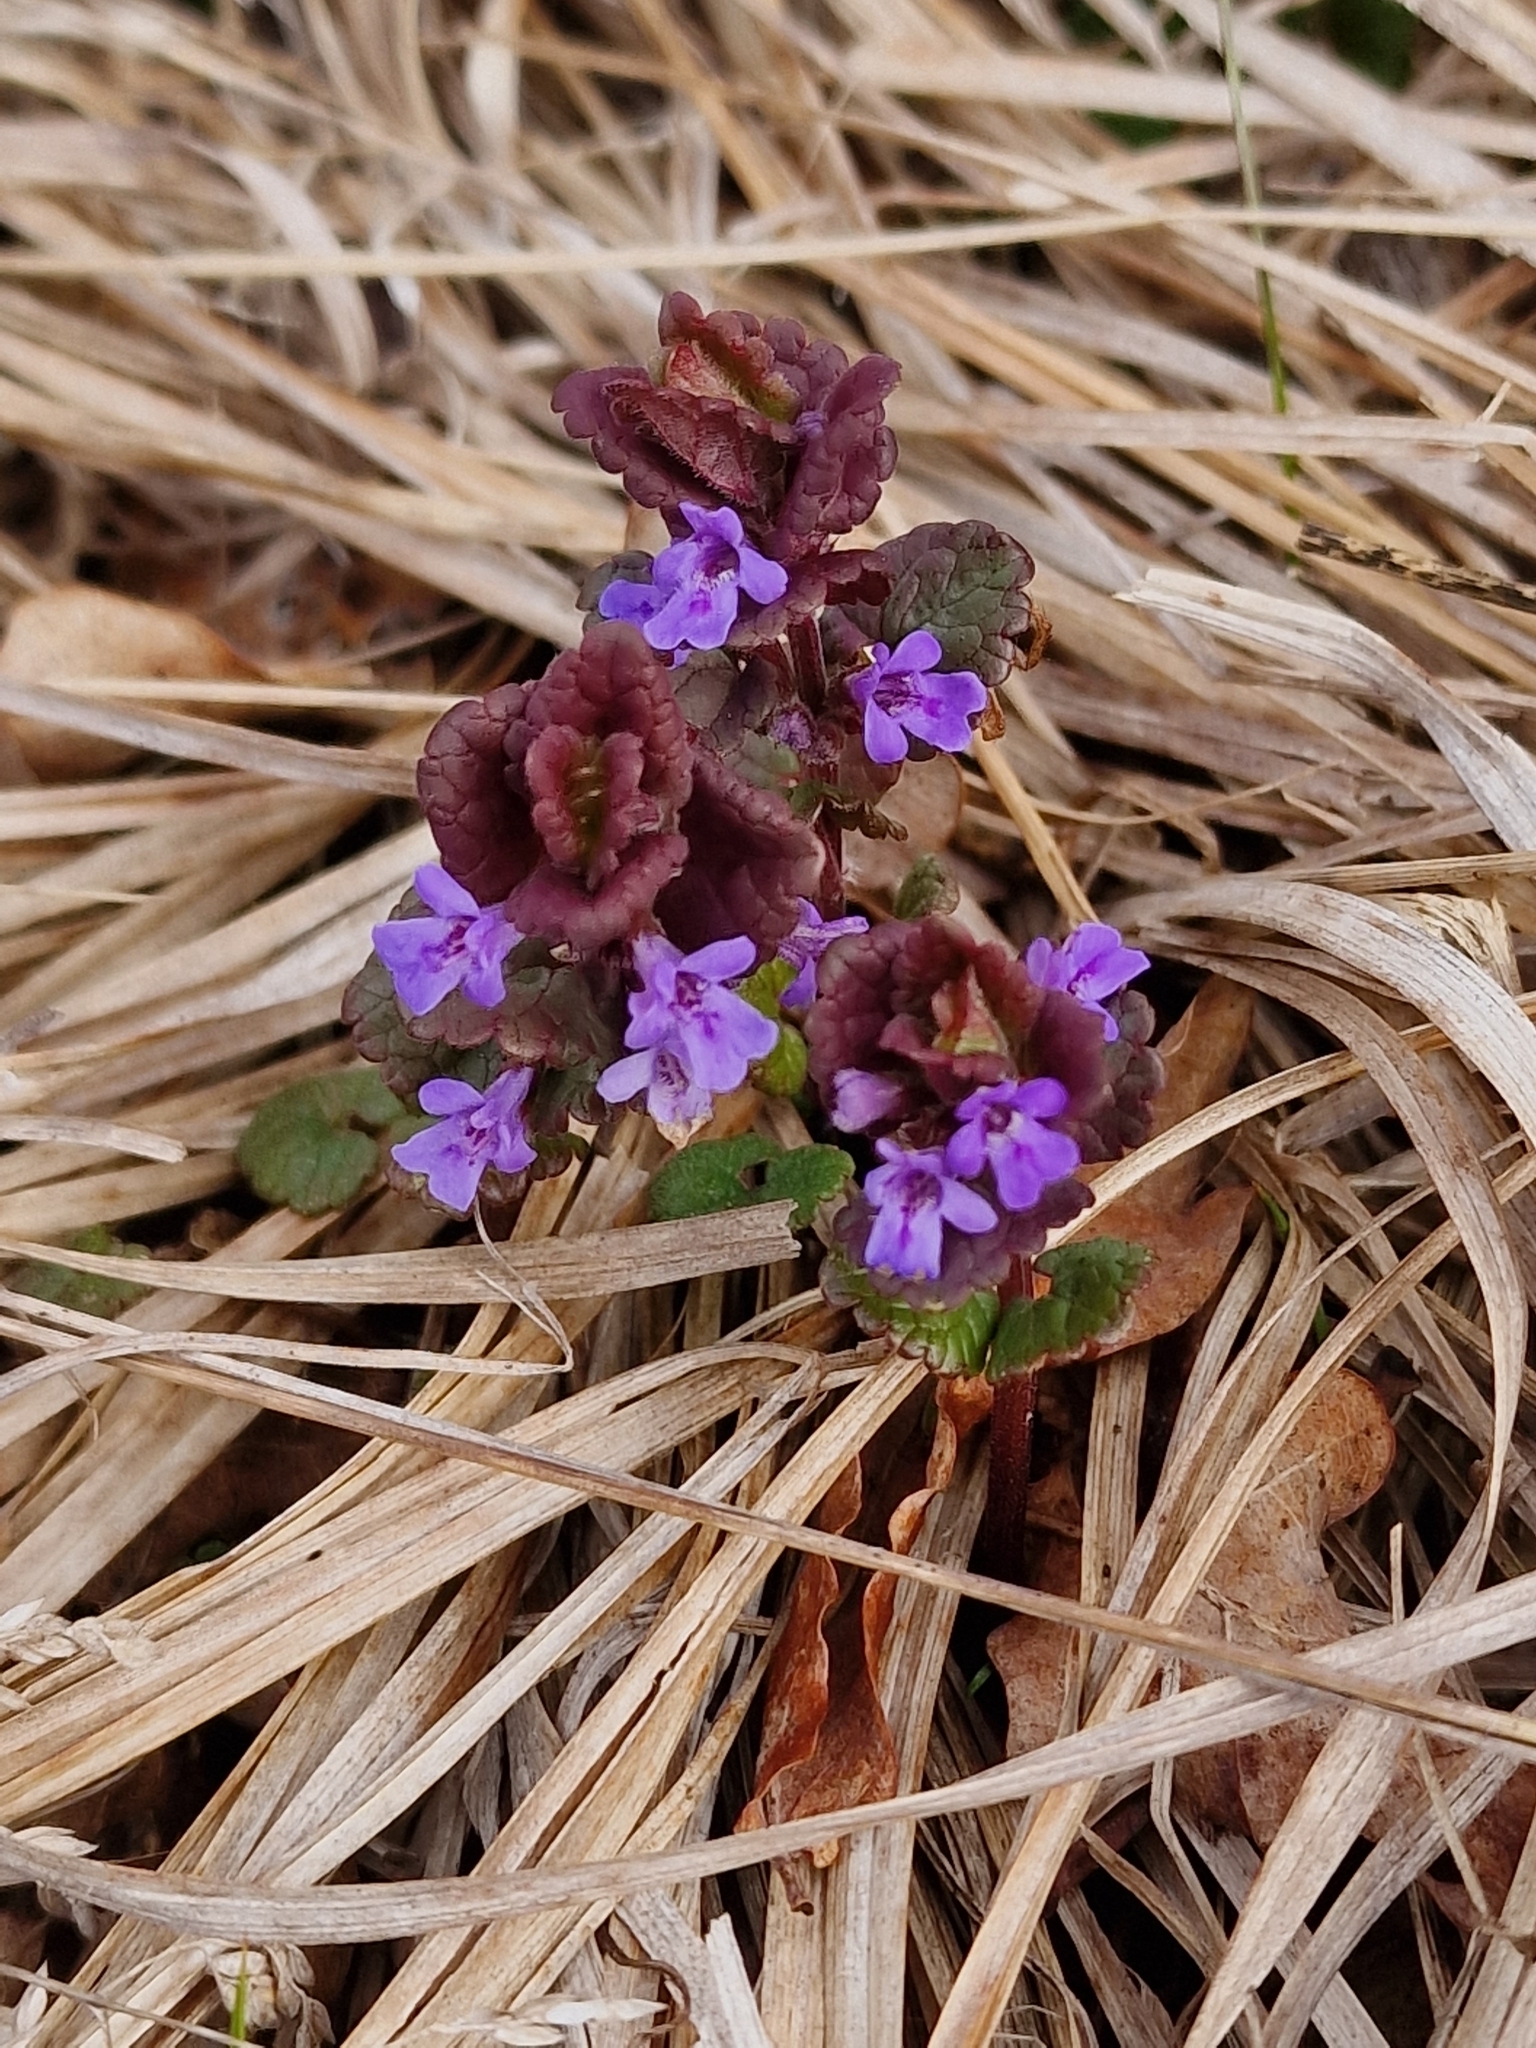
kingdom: Plantae
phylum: Tracheophyta
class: Magnoliopsida
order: Lamiales
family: Lamiaceae
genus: Glechoma
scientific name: Glechoma hederacea
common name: Ground ivy
